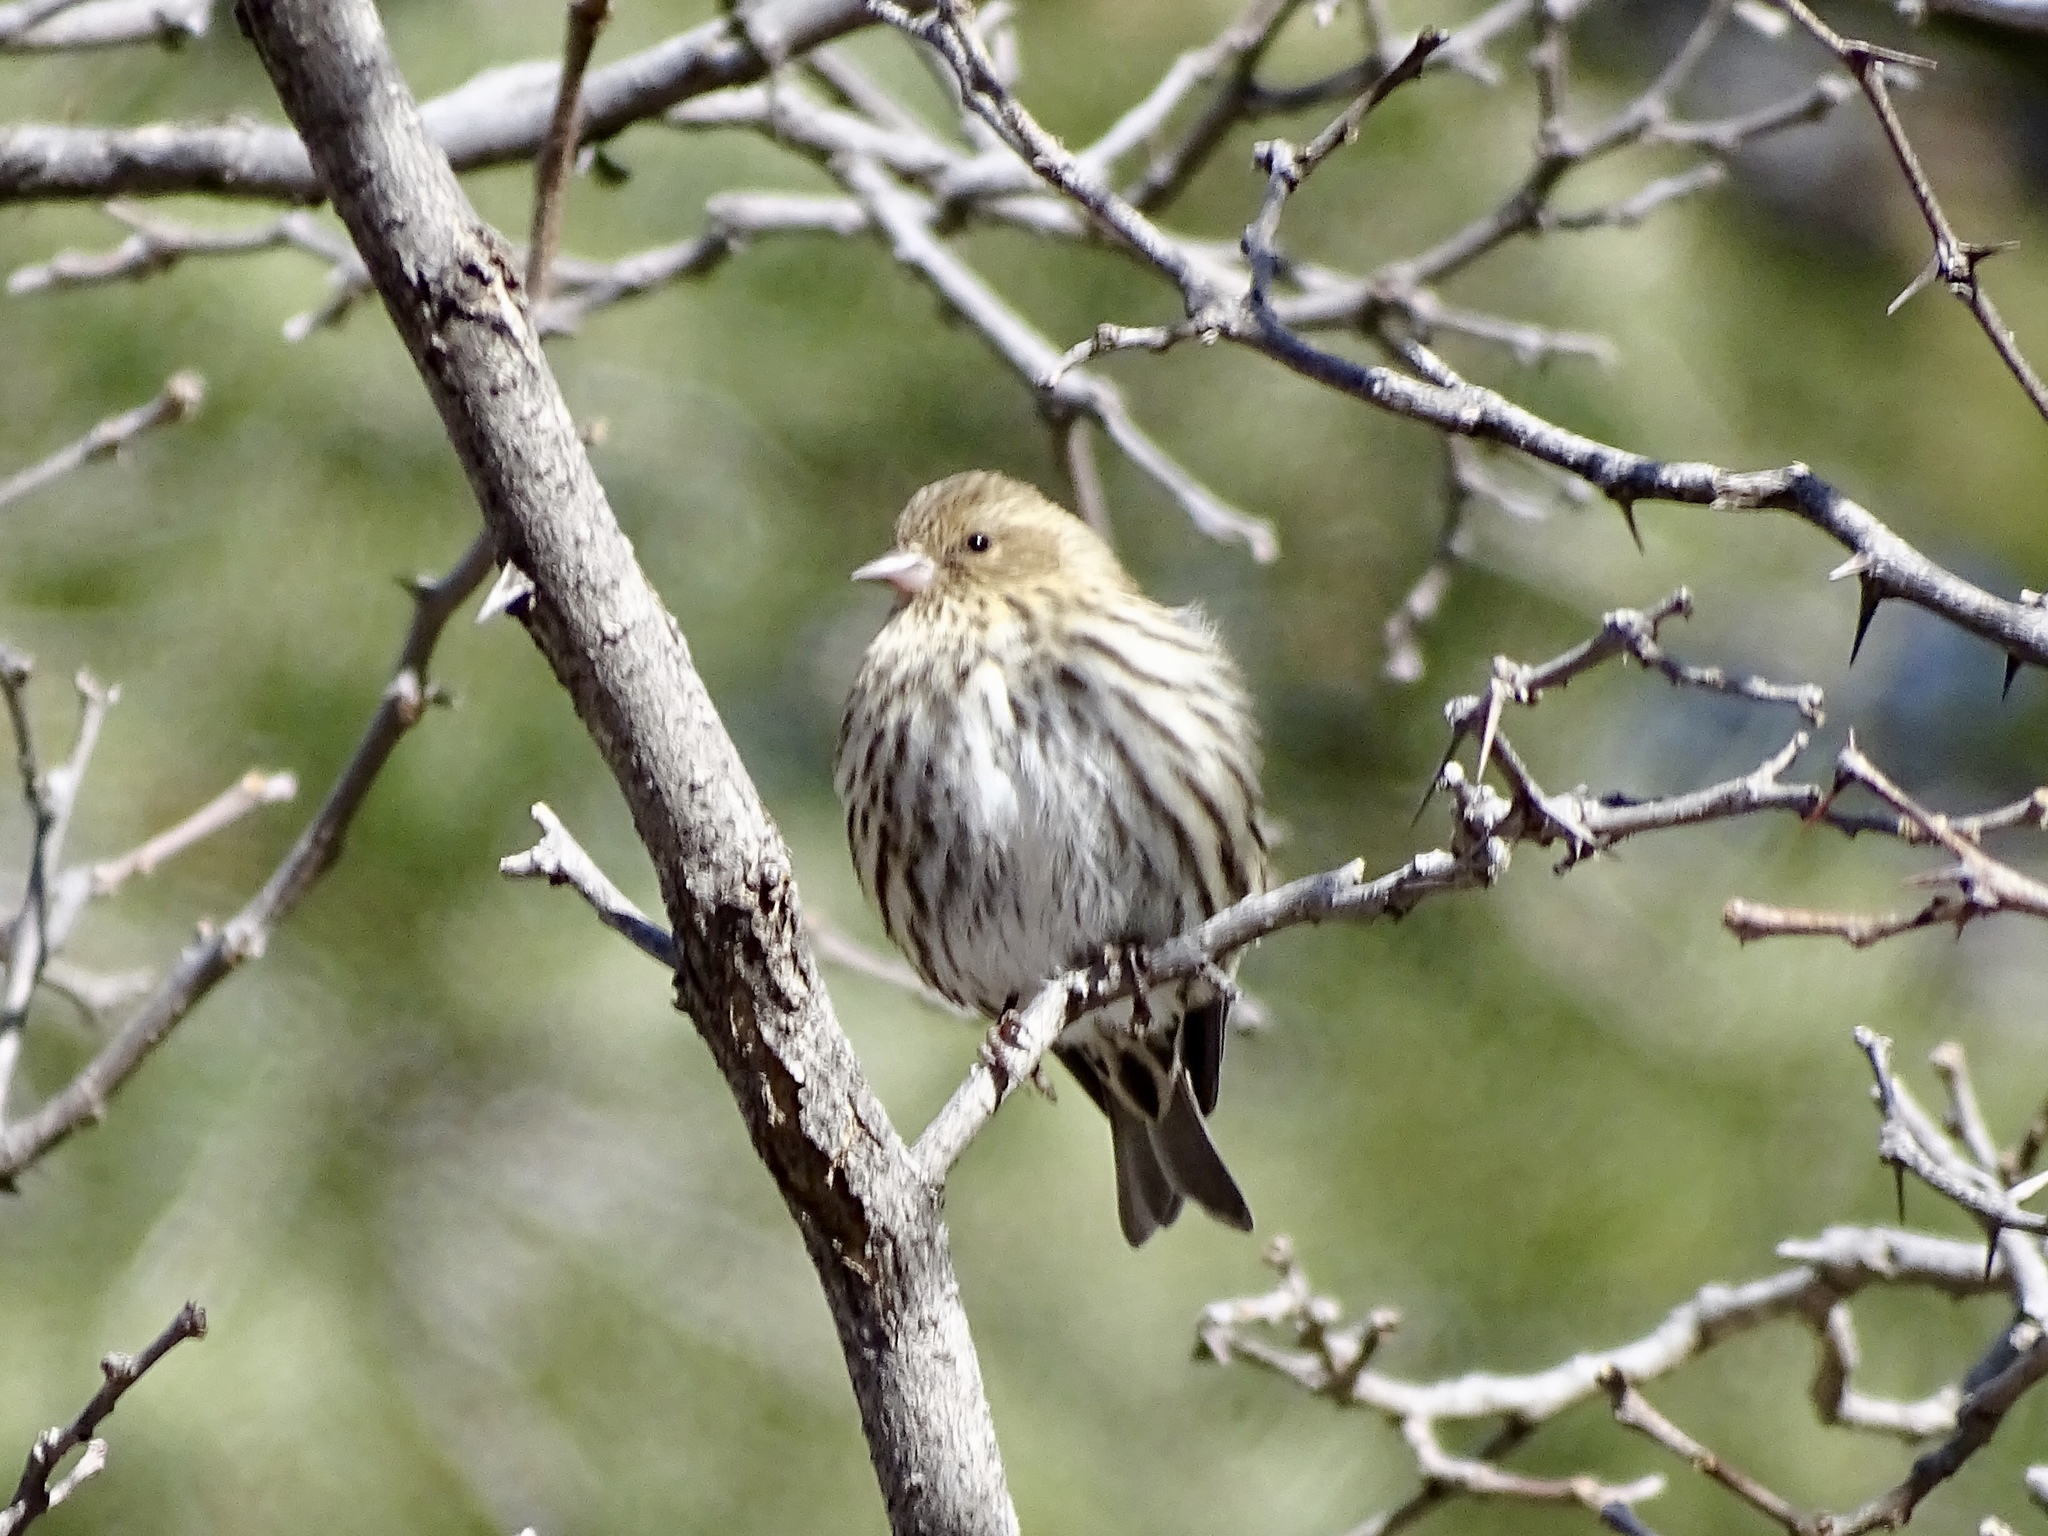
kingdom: Animalia
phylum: Chordata
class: Aves
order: Passeriformes
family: Fringillidae
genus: Spinus
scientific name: Spinus pinus
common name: Pine siskin
